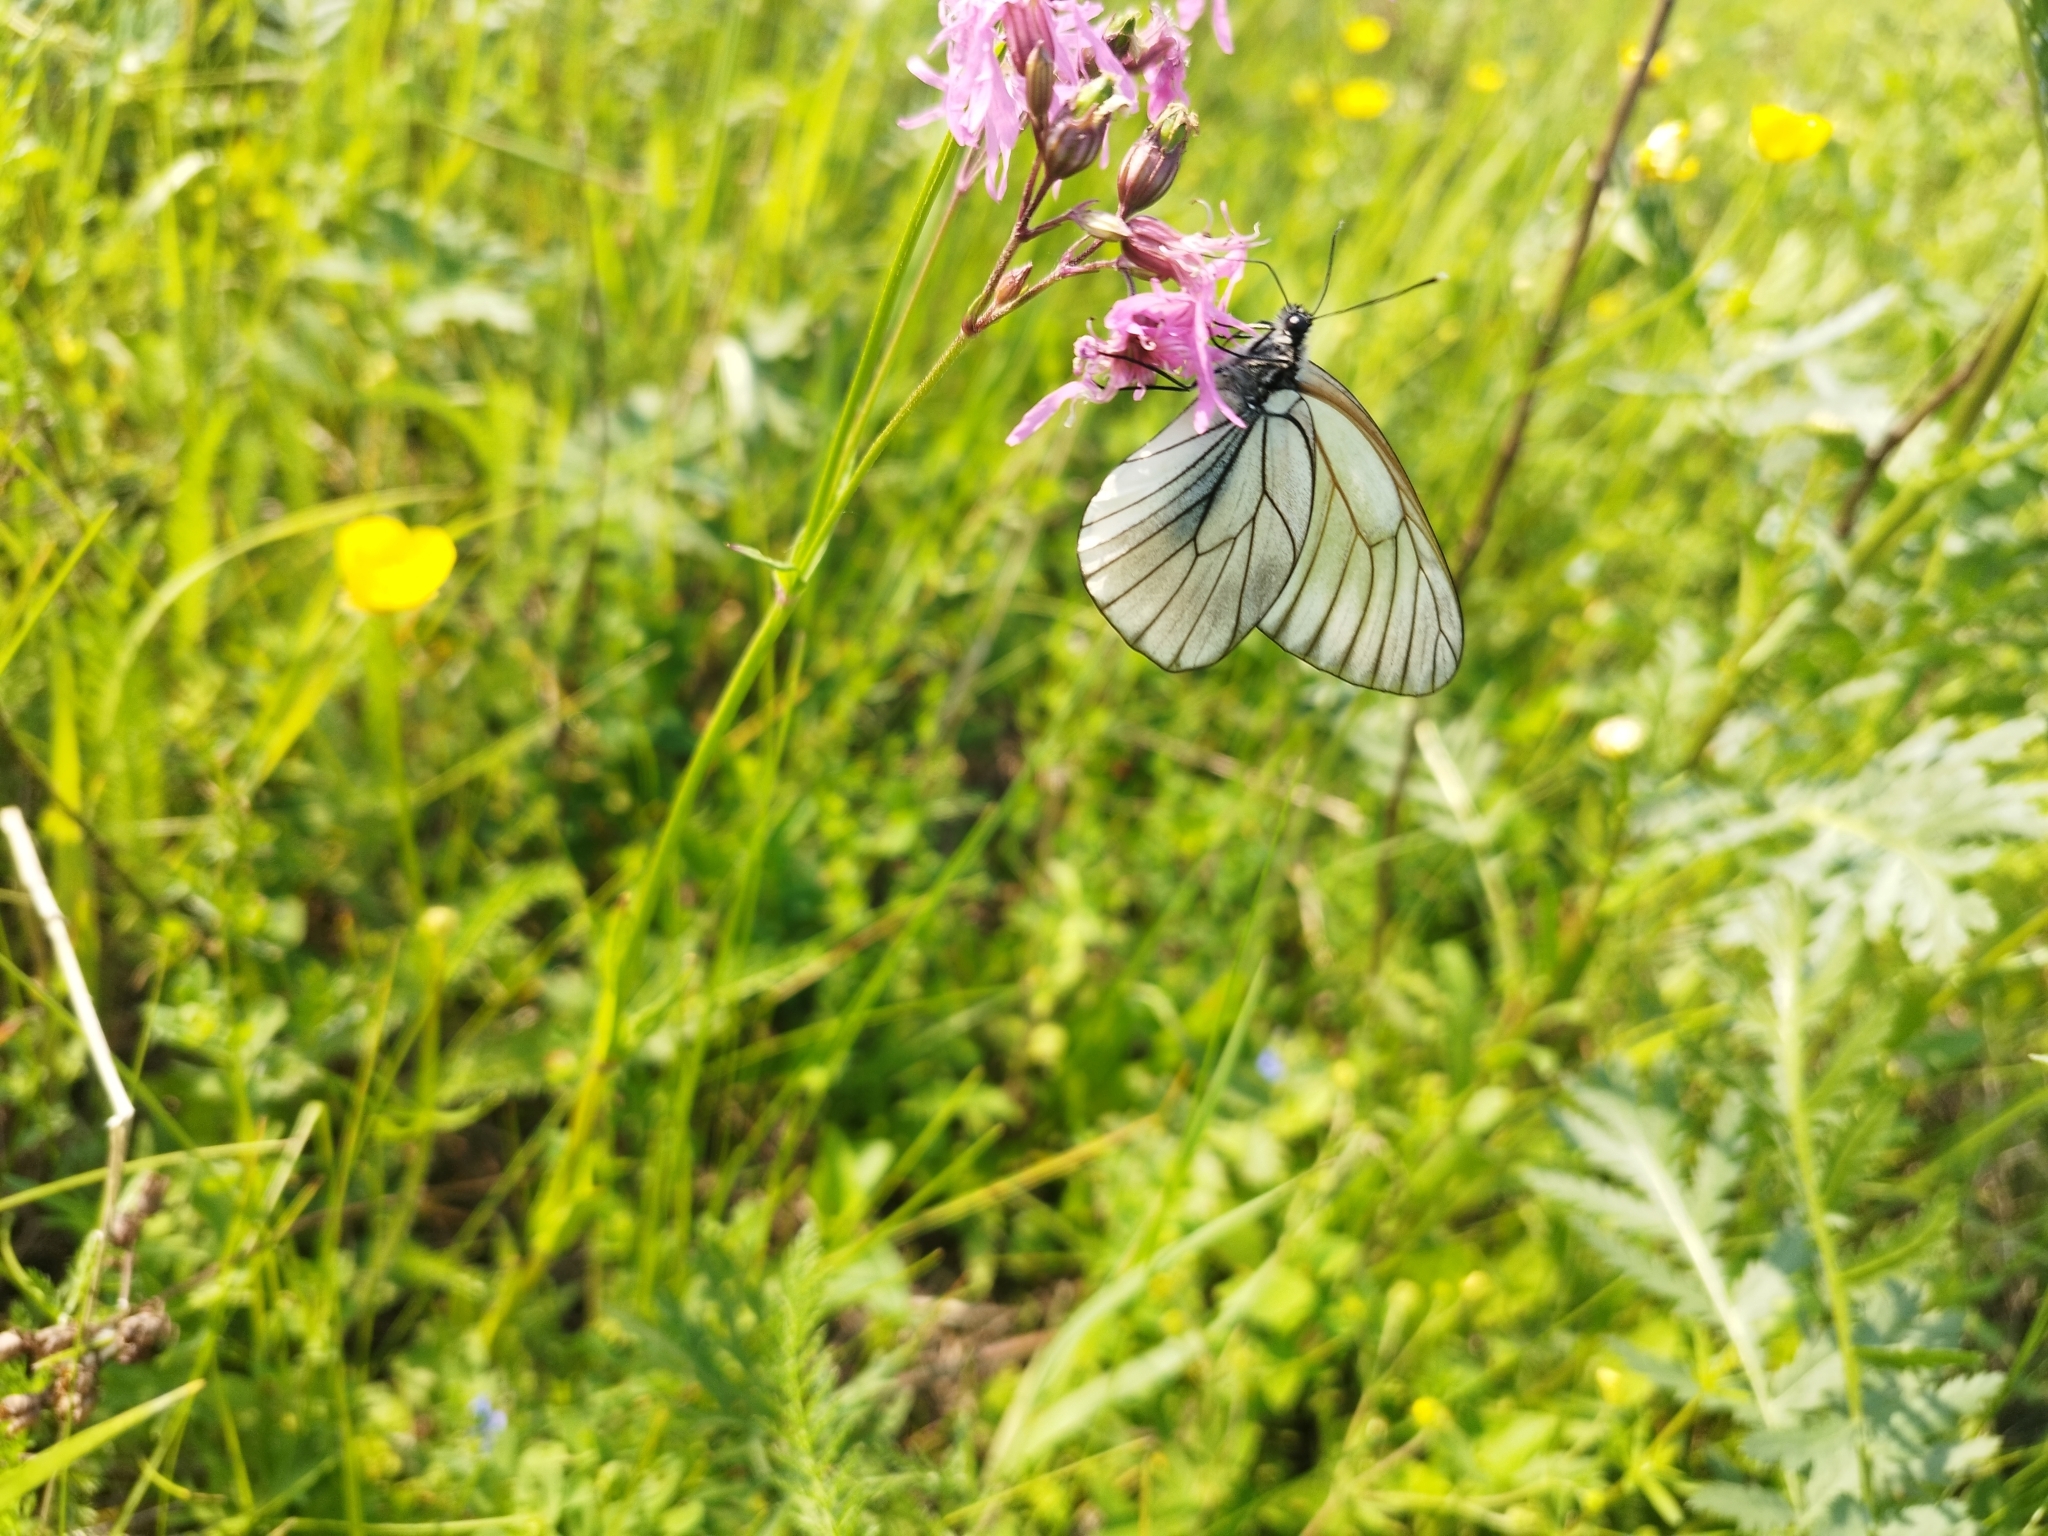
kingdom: Animalia
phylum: Arthropoda
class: Insecta
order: Lepidoptera
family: Pieridae
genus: Aporia
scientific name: Aporia crataegi
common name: Black-veined white
